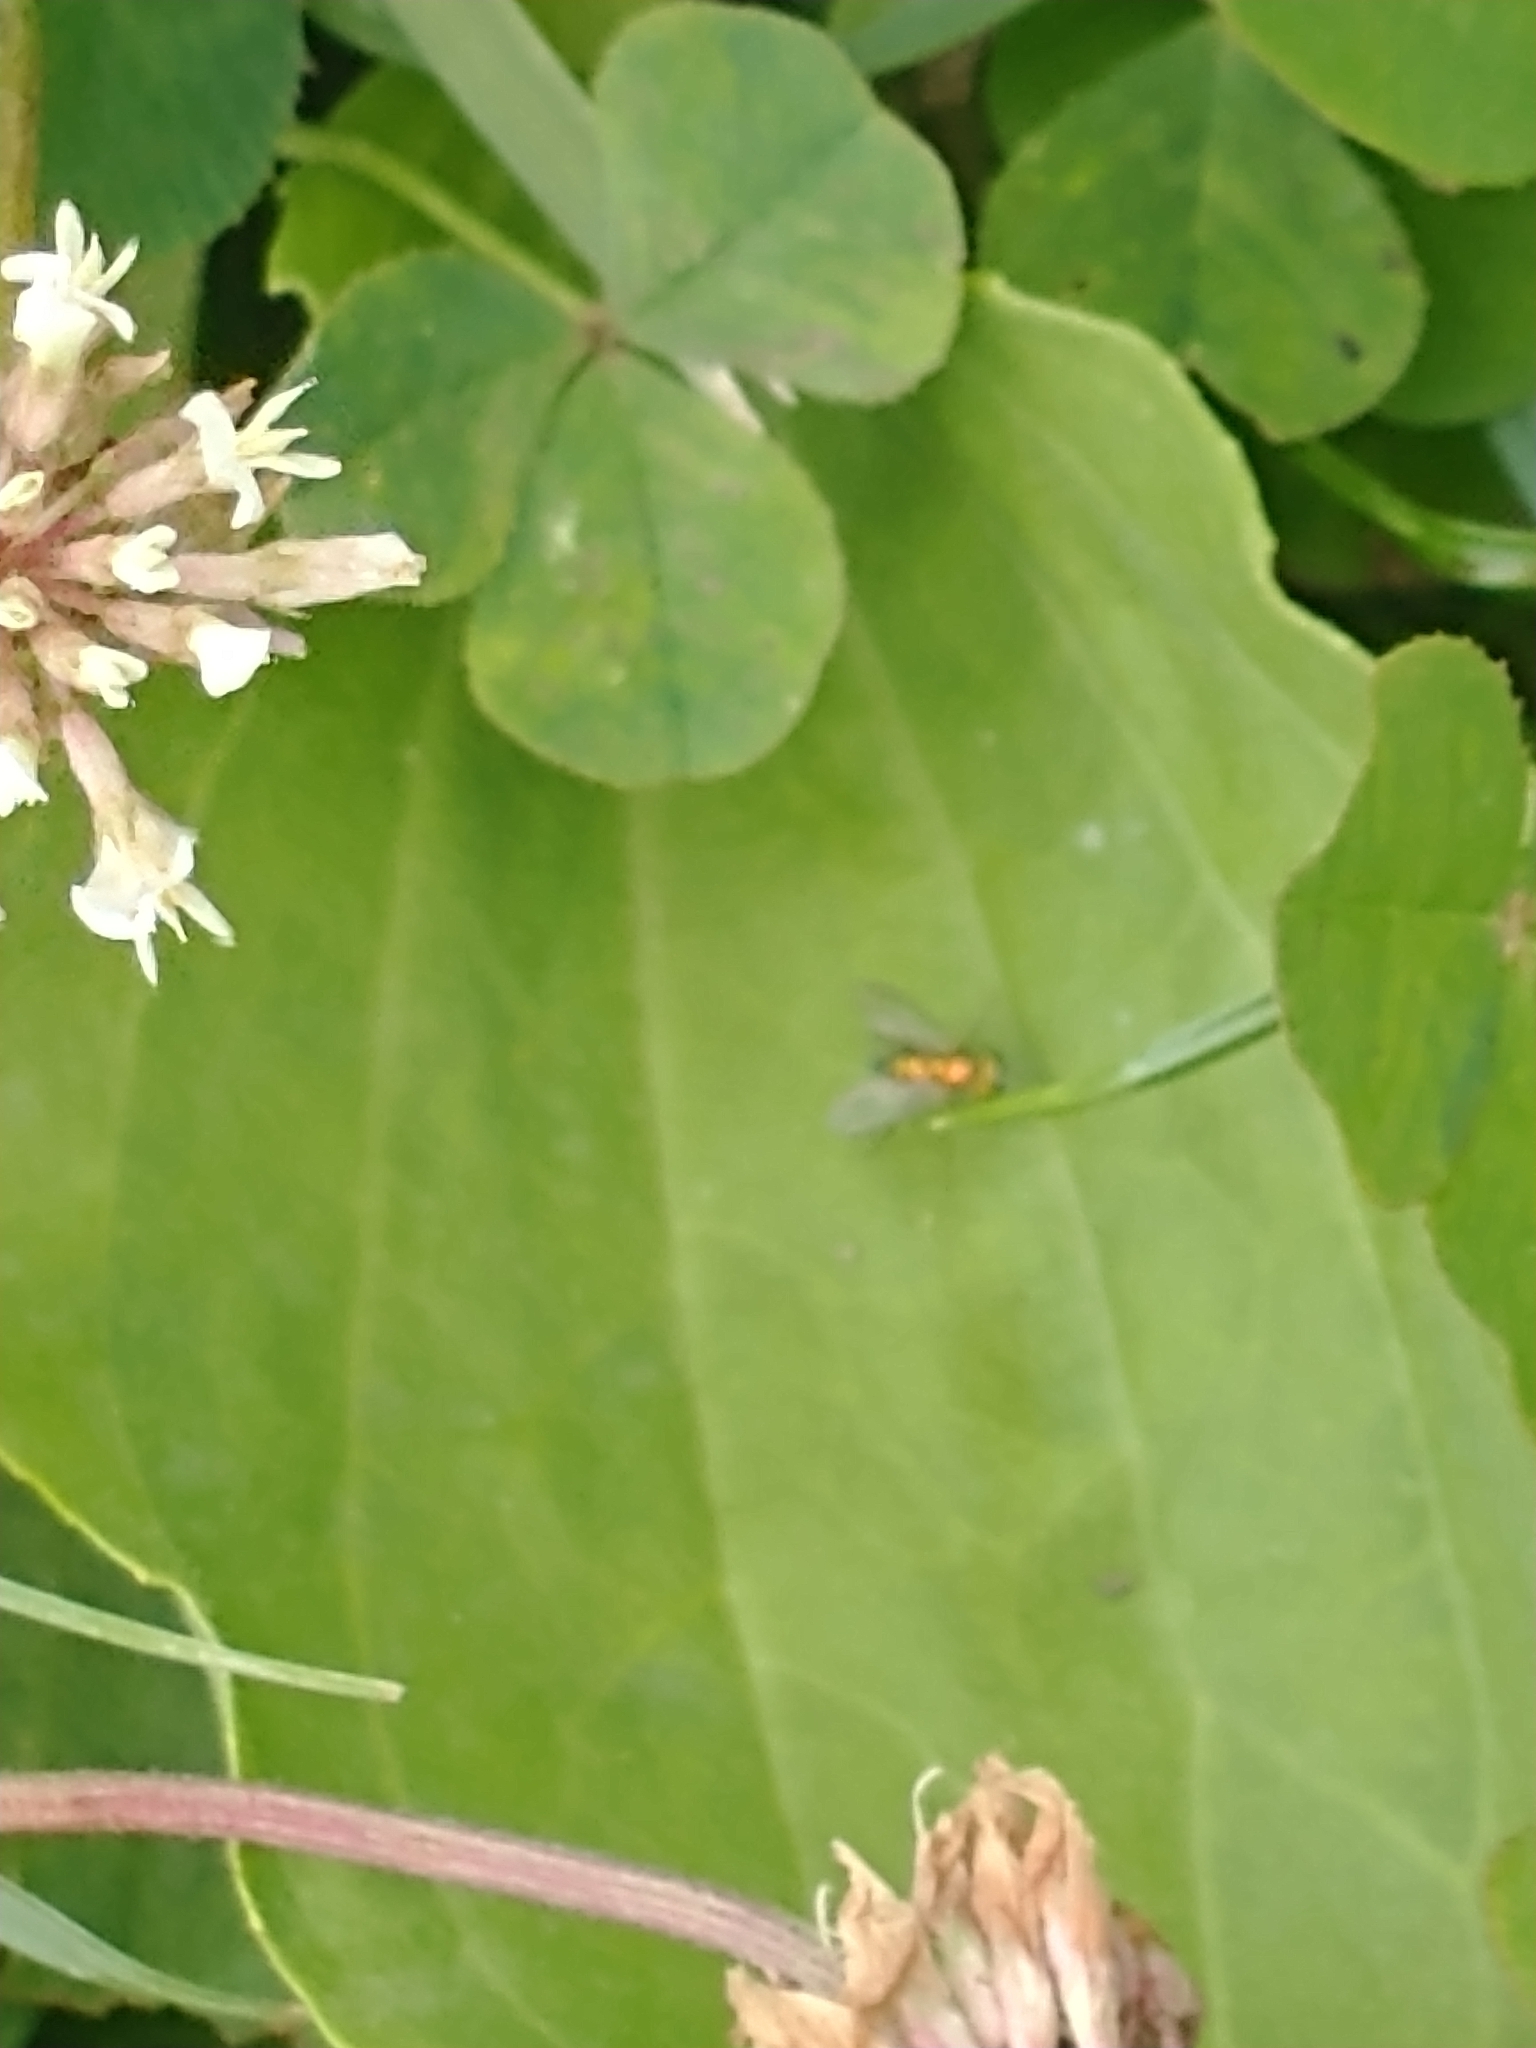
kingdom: Animalia
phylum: Arthropoda
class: Insecta
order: Diptera
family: Dolichopodidae
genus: Condylostylus
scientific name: Condylostylus
